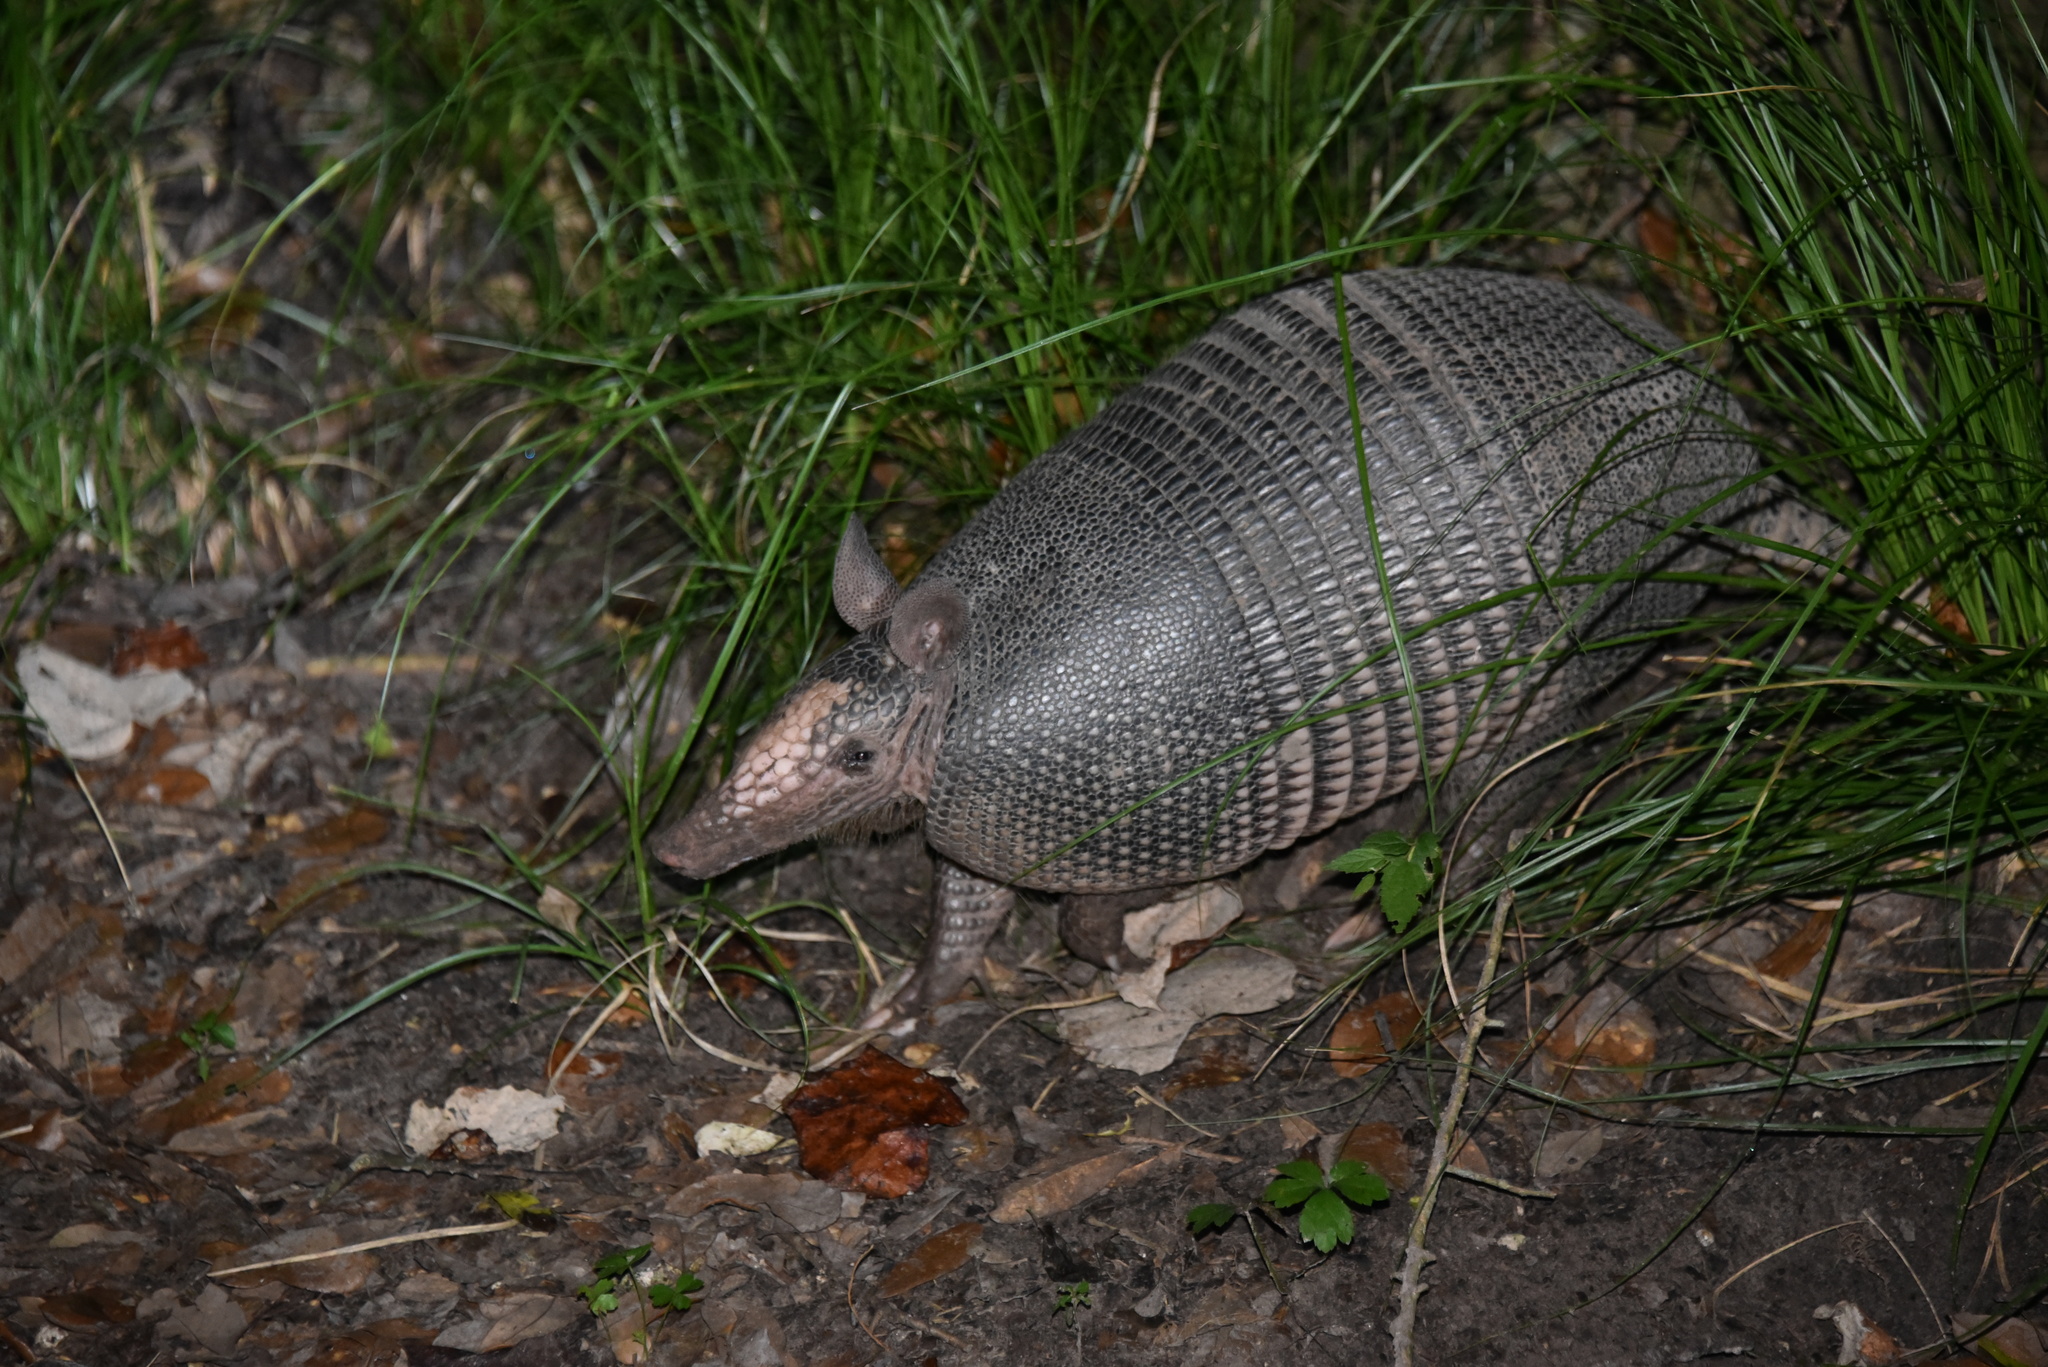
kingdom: Animalia
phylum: Chordata
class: Mammalia
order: Cingulata
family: Dasypodidae
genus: Dasypus
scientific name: Dasypus novemcinctus
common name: Nine-banded armadillo
